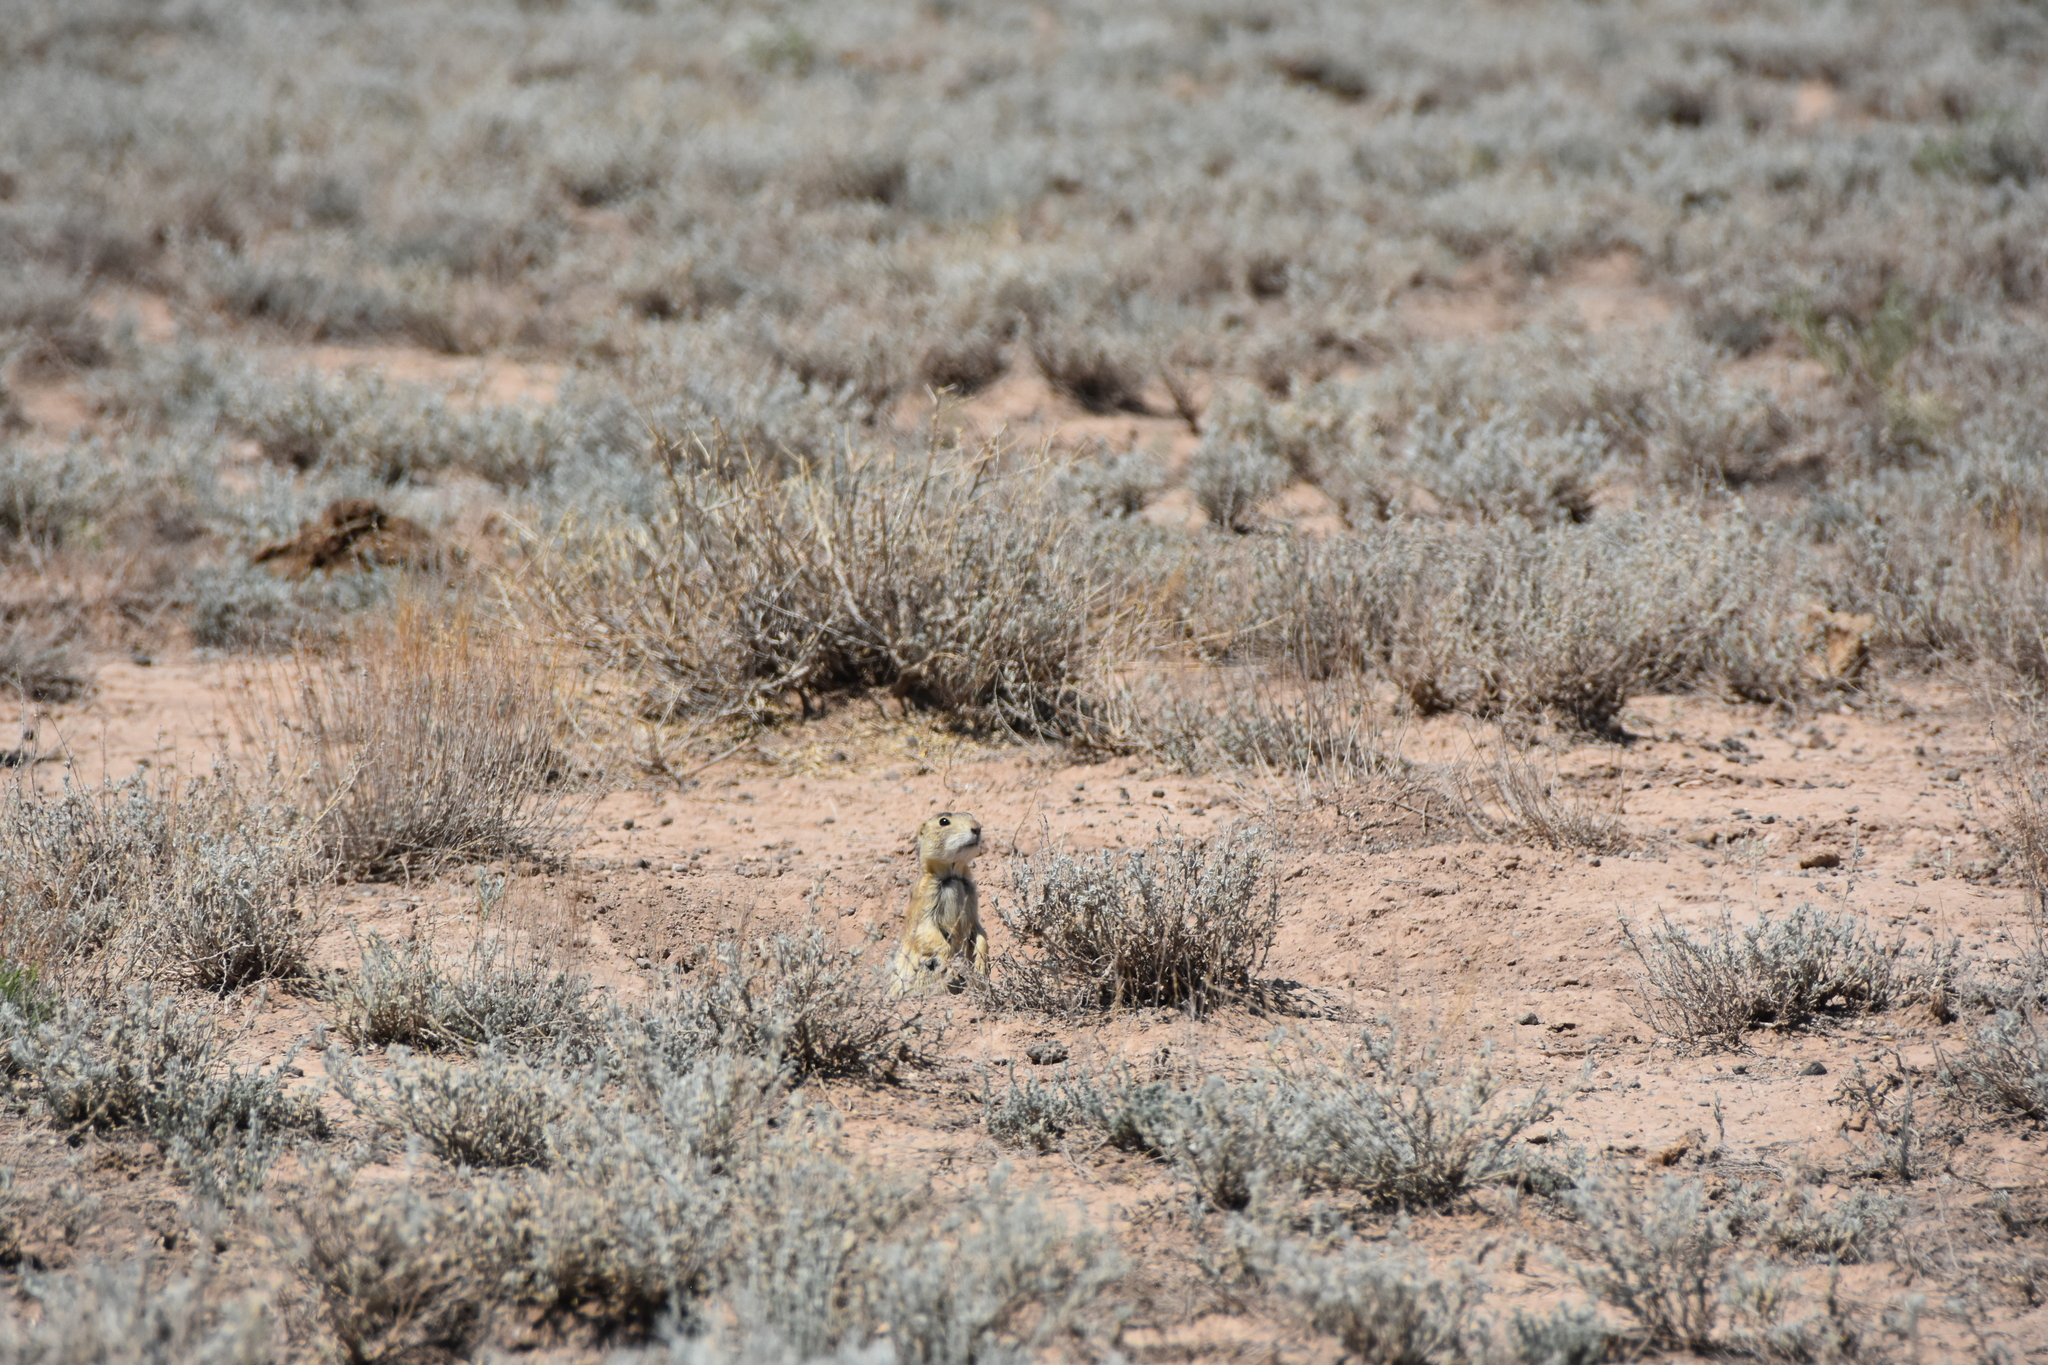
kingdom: Animalia
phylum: Chordata
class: Mammalia
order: Rodentia
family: Sciuridae
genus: Cynomys
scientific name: Cynomys gunnisoni
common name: Gunnison's prairie dog
